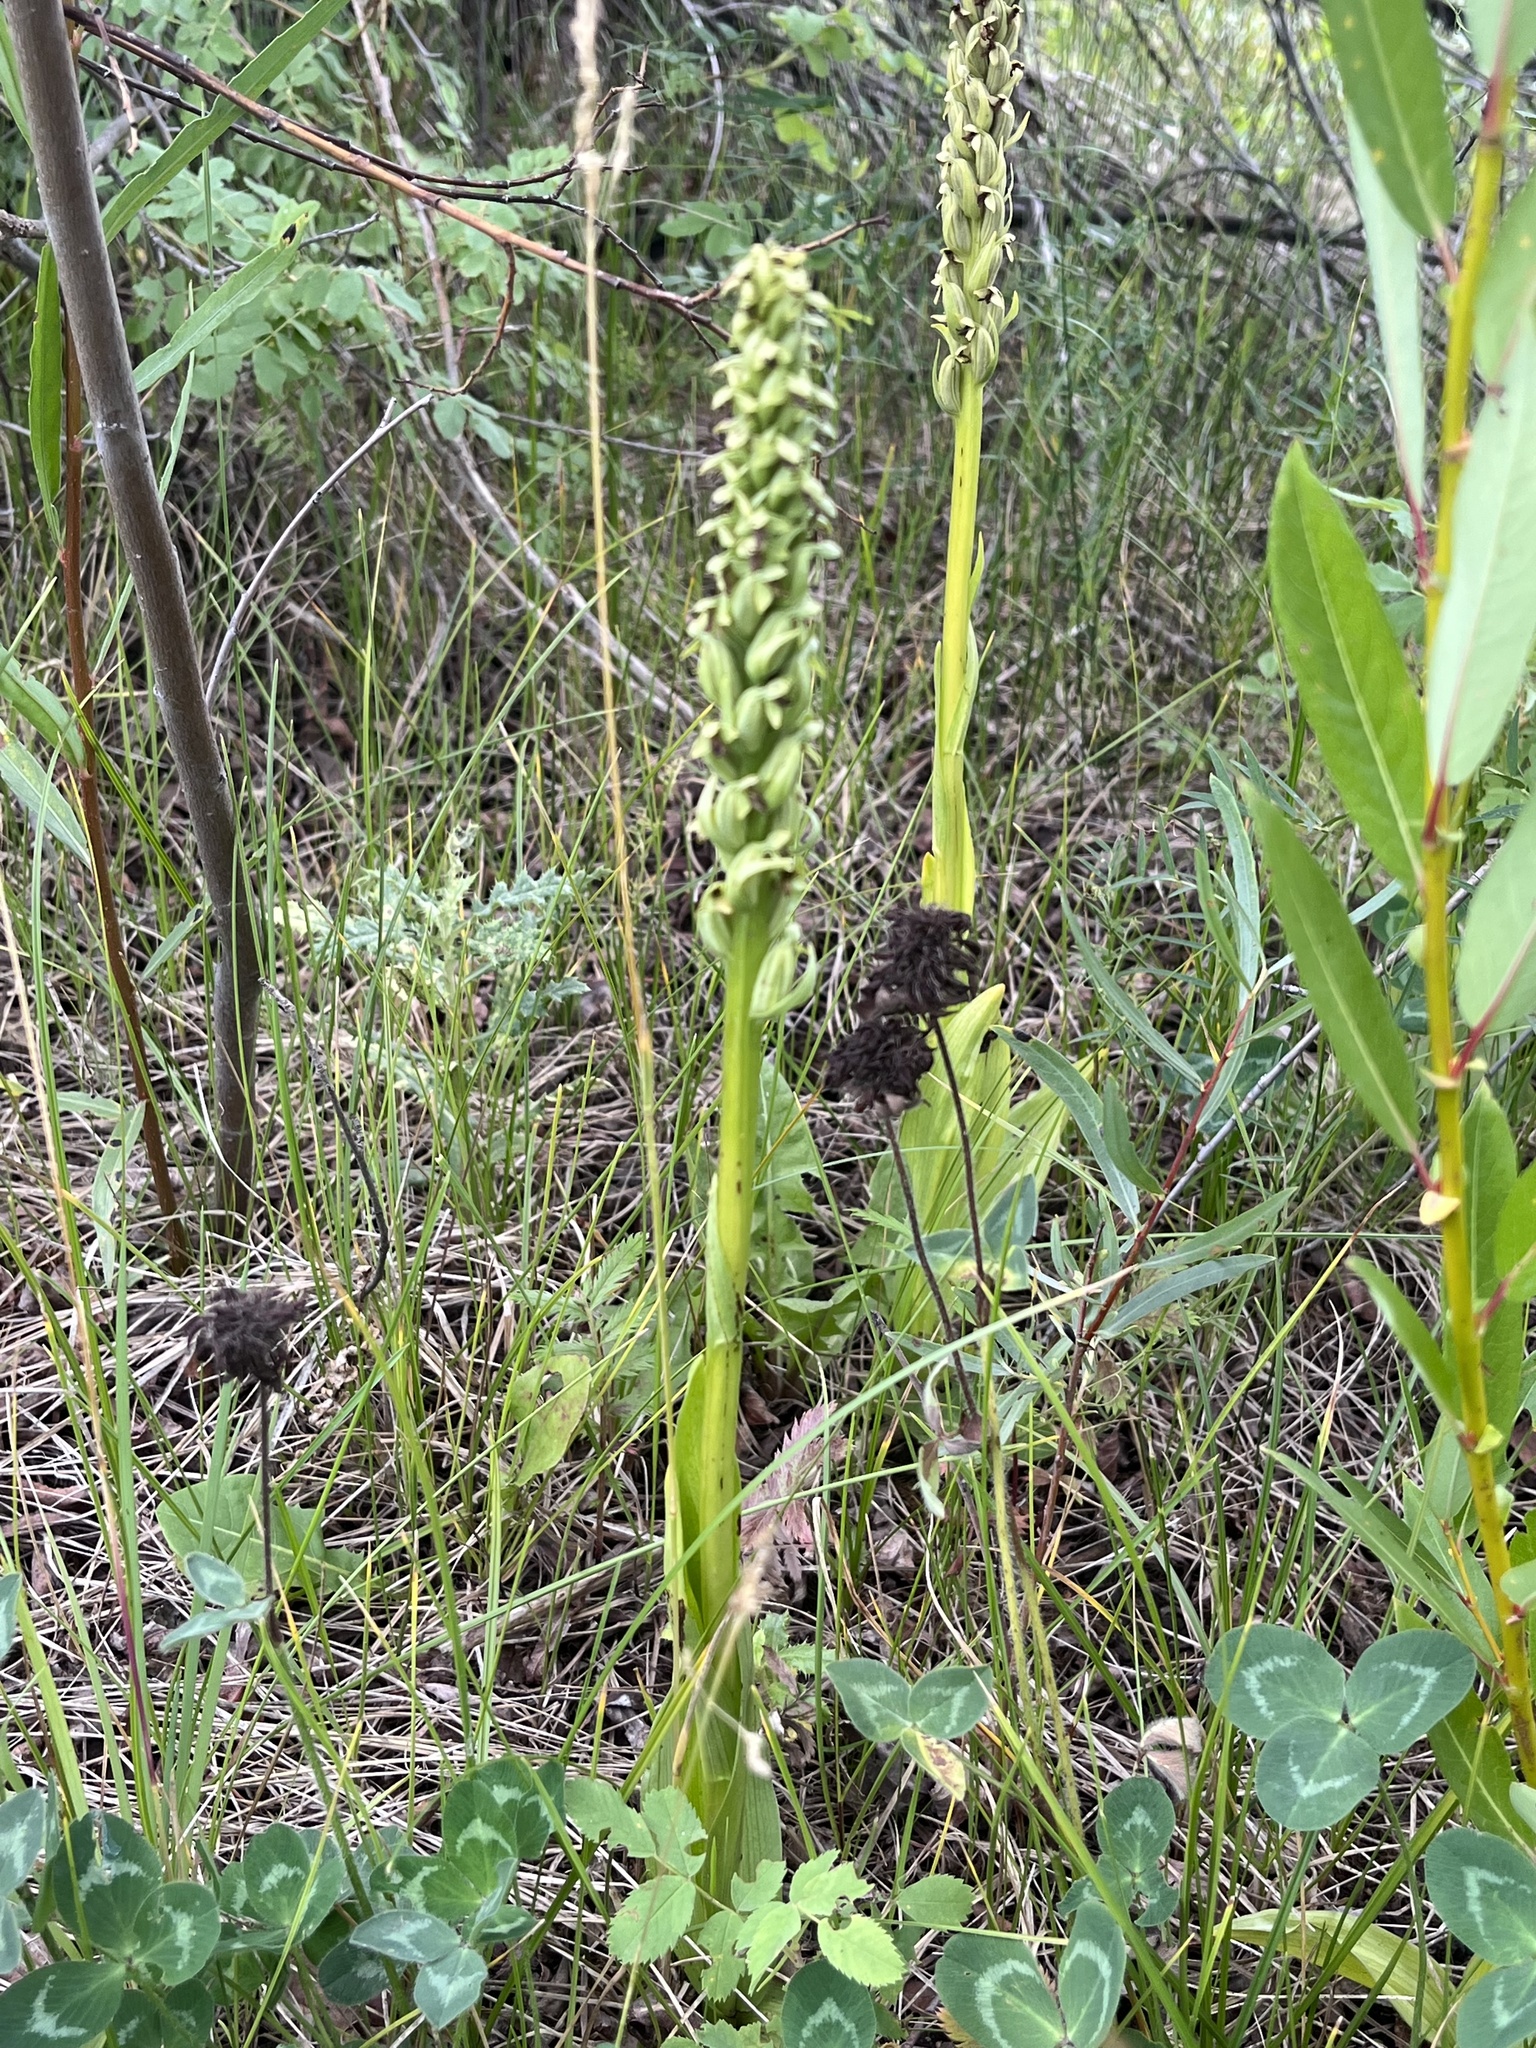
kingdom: Plantae
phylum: Tracheophyta
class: Liliopsida
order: Asparagales
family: Orchidaceae
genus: Platanthera
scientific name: Platanthera huronensis
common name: Fragrant green orchid
